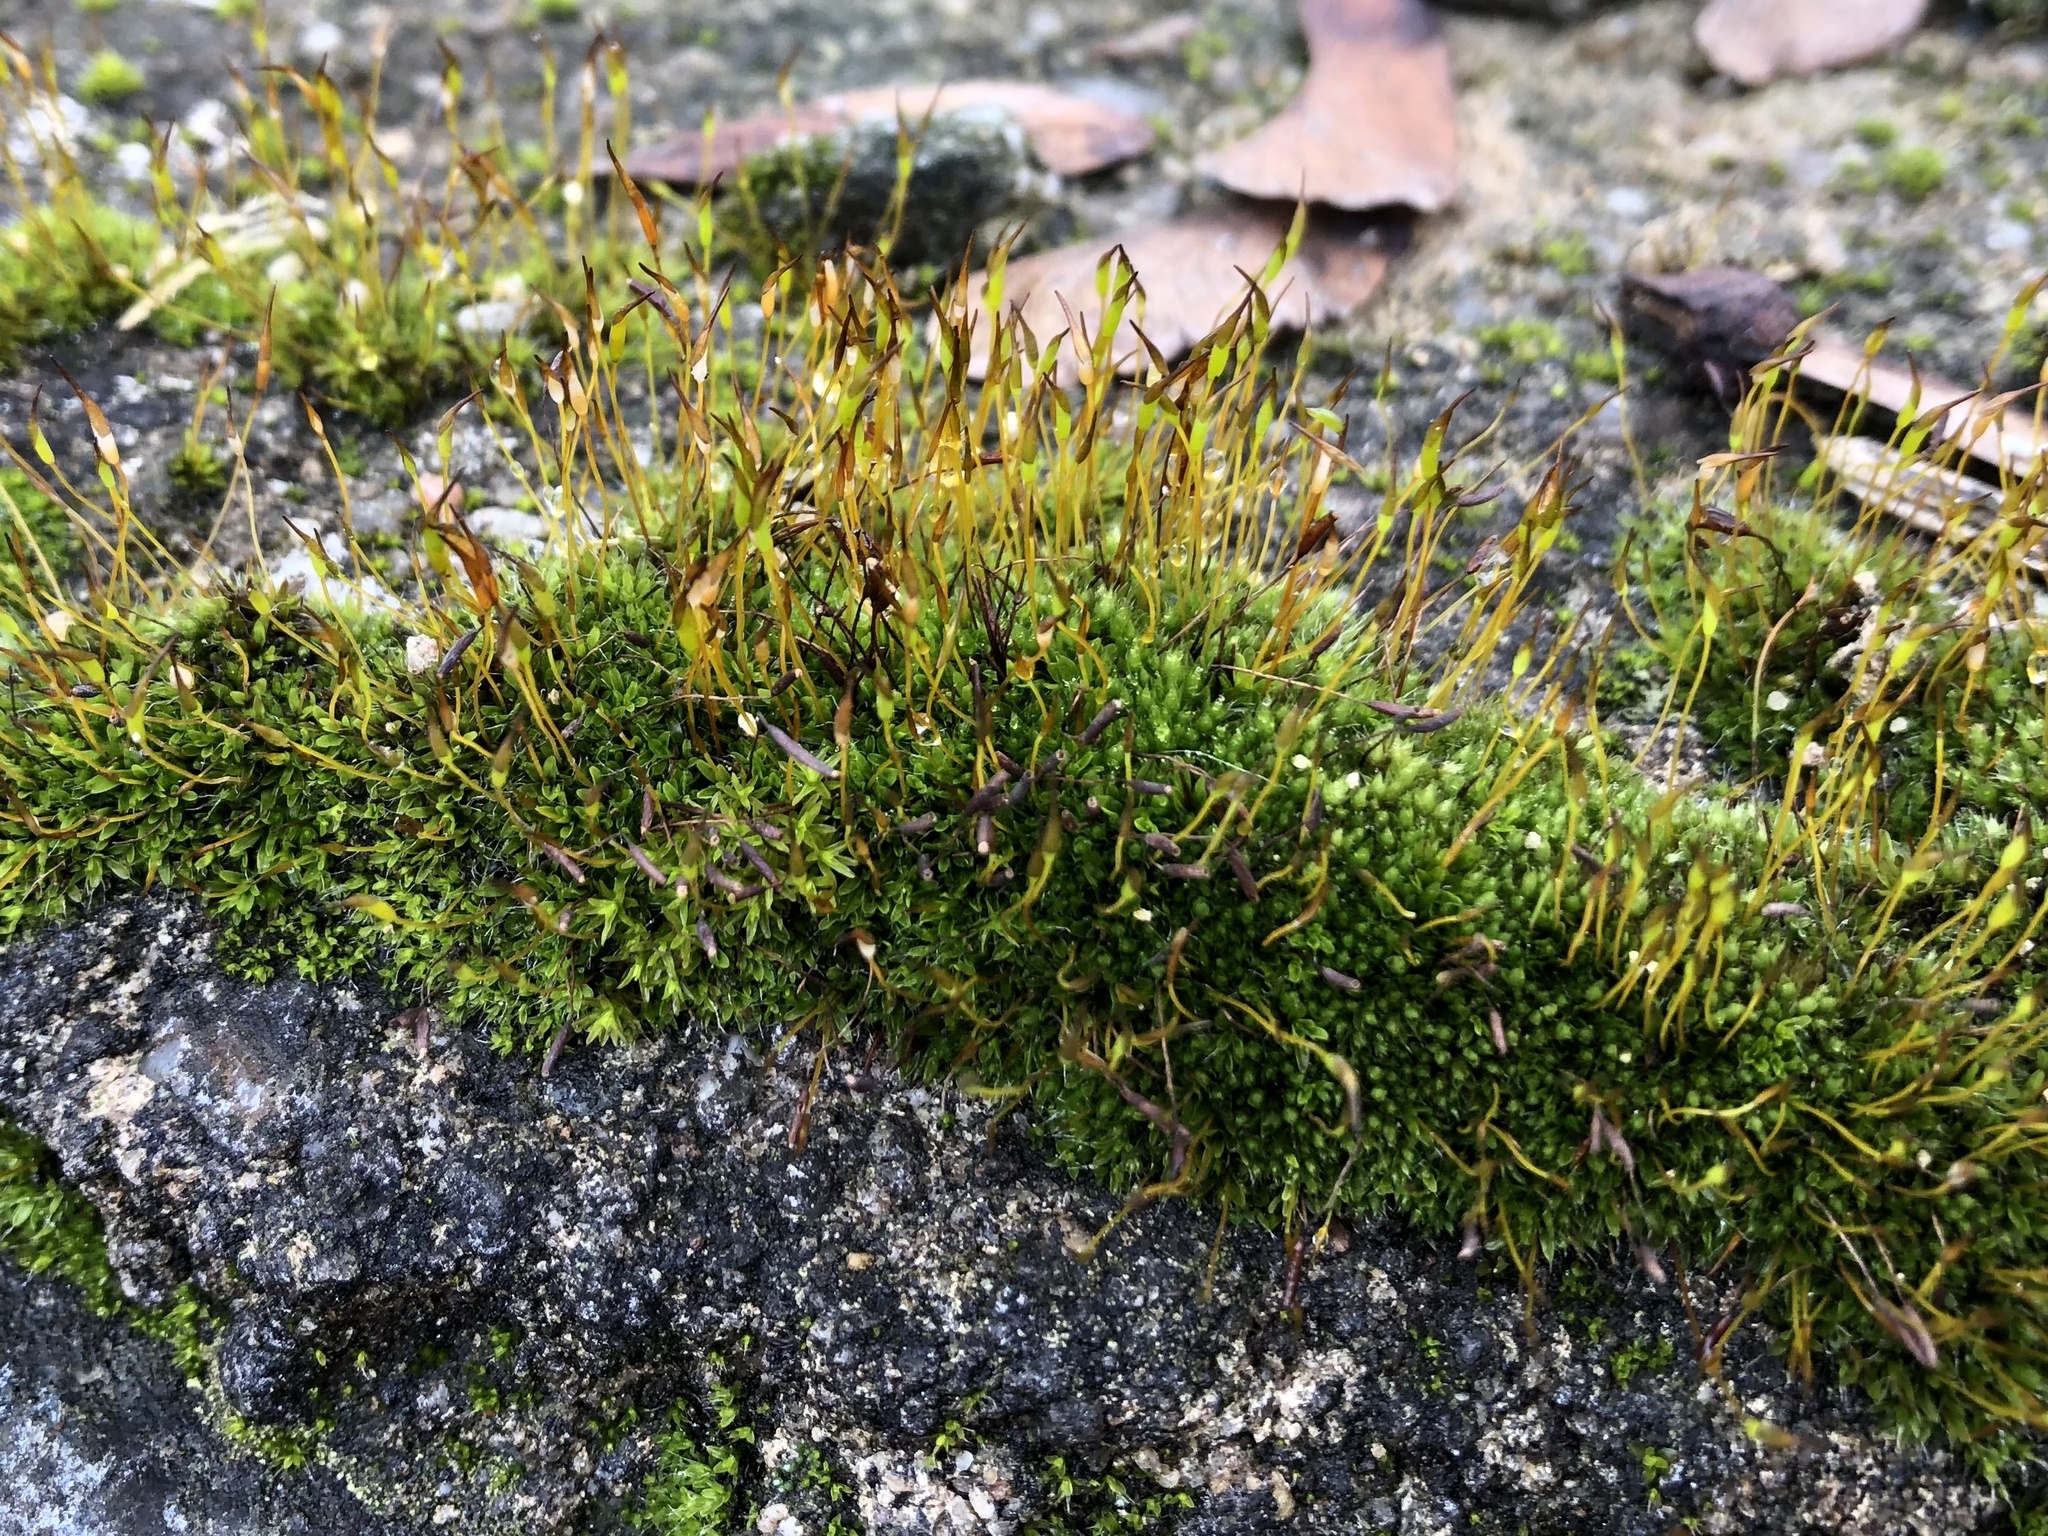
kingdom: Plantae
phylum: Bryophyta
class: Bryopsida
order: Pottiales
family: Pottiaceae
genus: Tortula
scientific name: Tortula muralis
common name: Wall screw-moss
